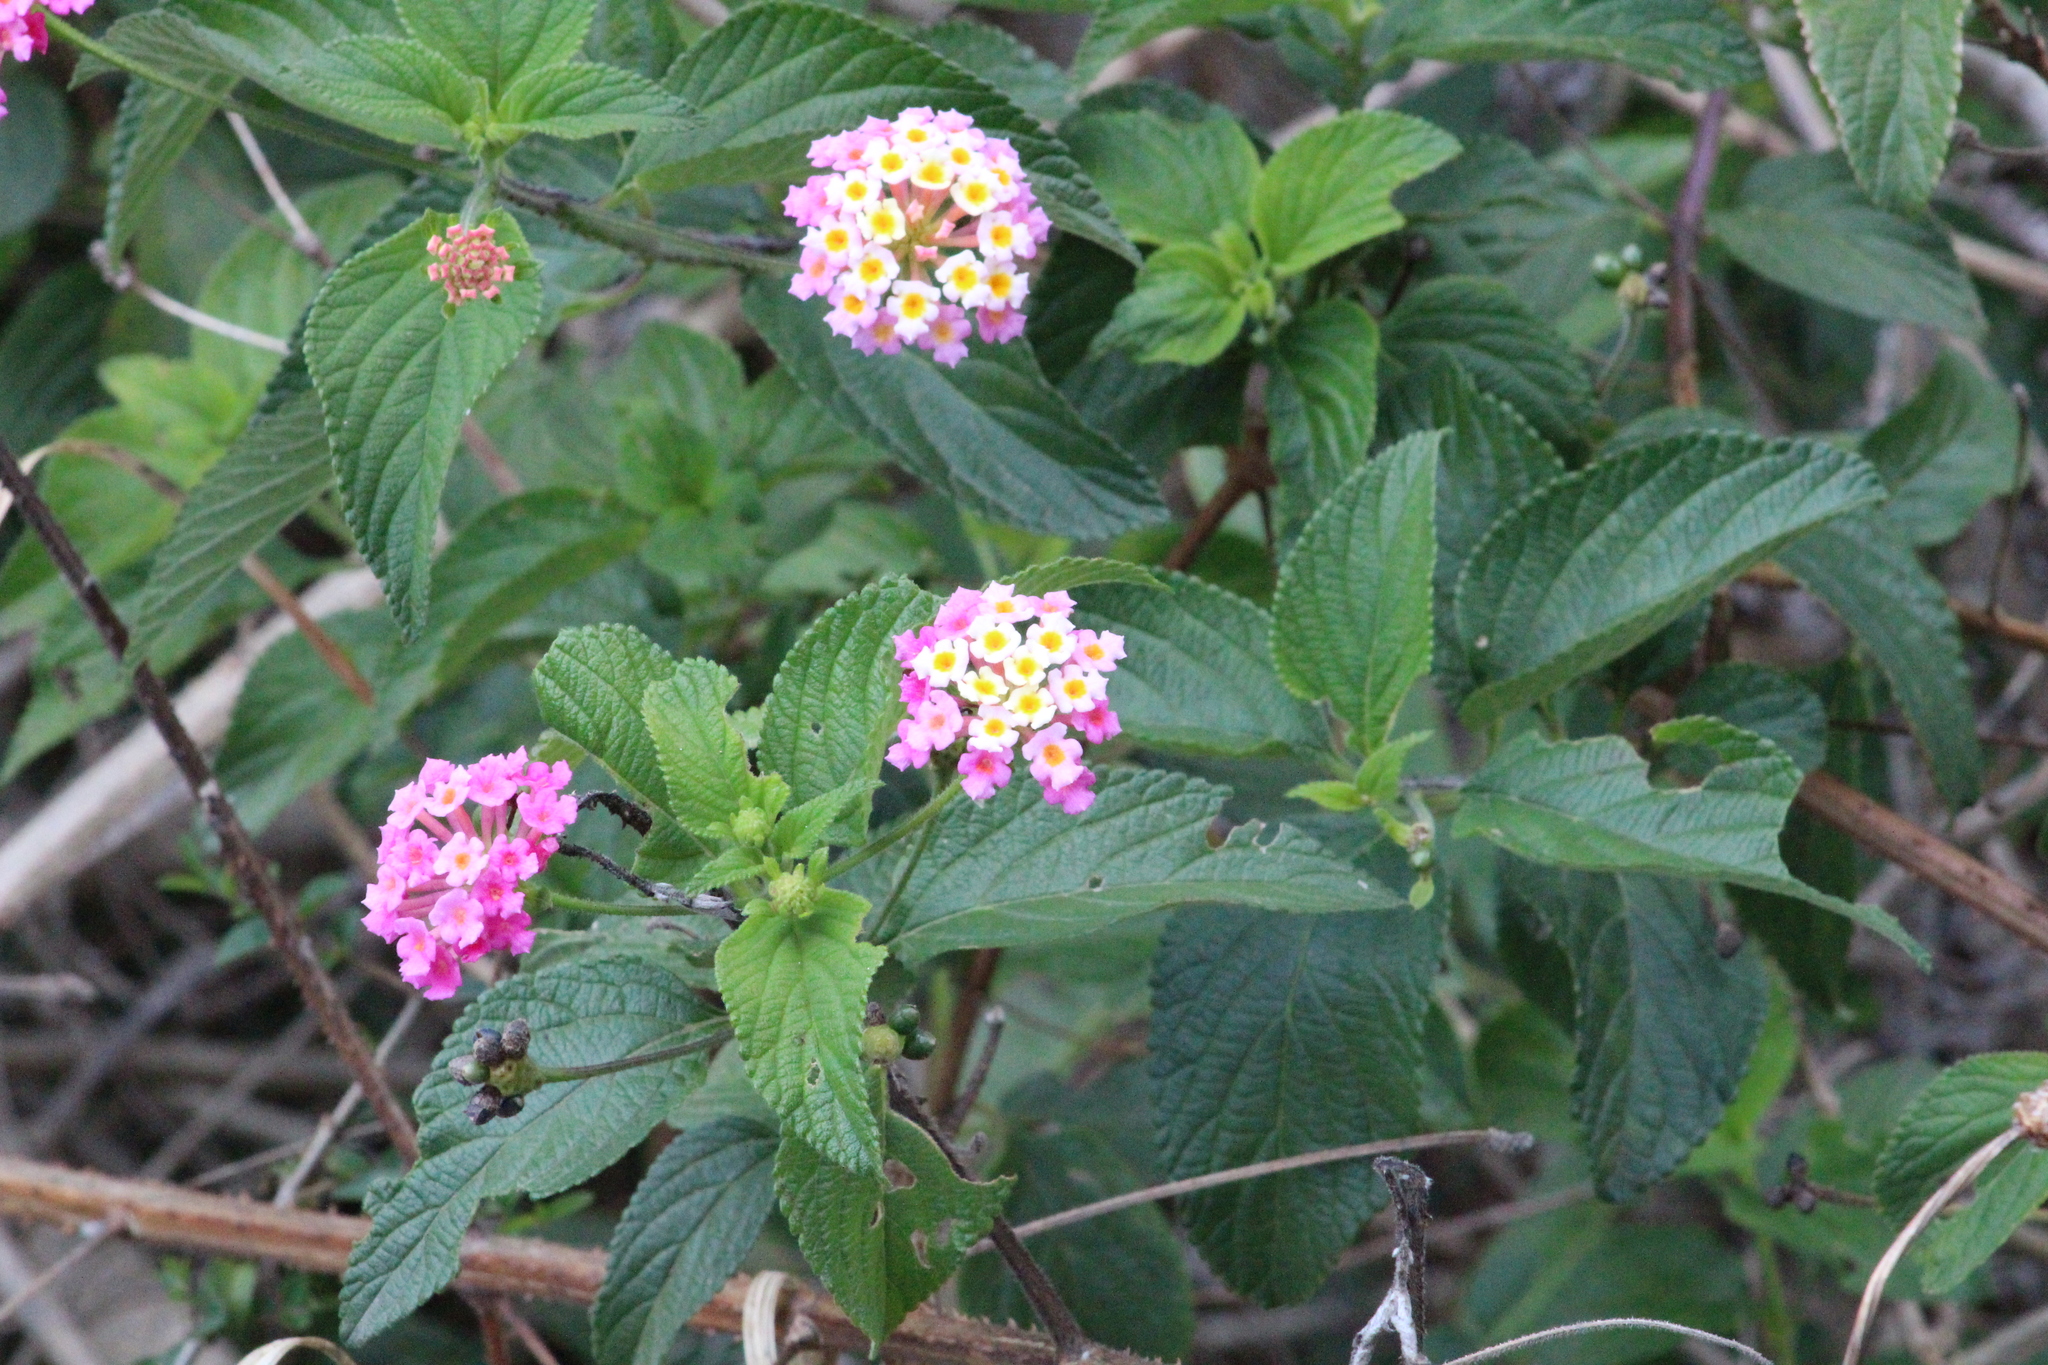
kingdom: Plantae
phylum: Tracheophyta
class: Magnoliopsida
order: Lamiales
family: Verbenaceae
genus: Lantana
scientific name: Lantana camara
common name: Lantana
